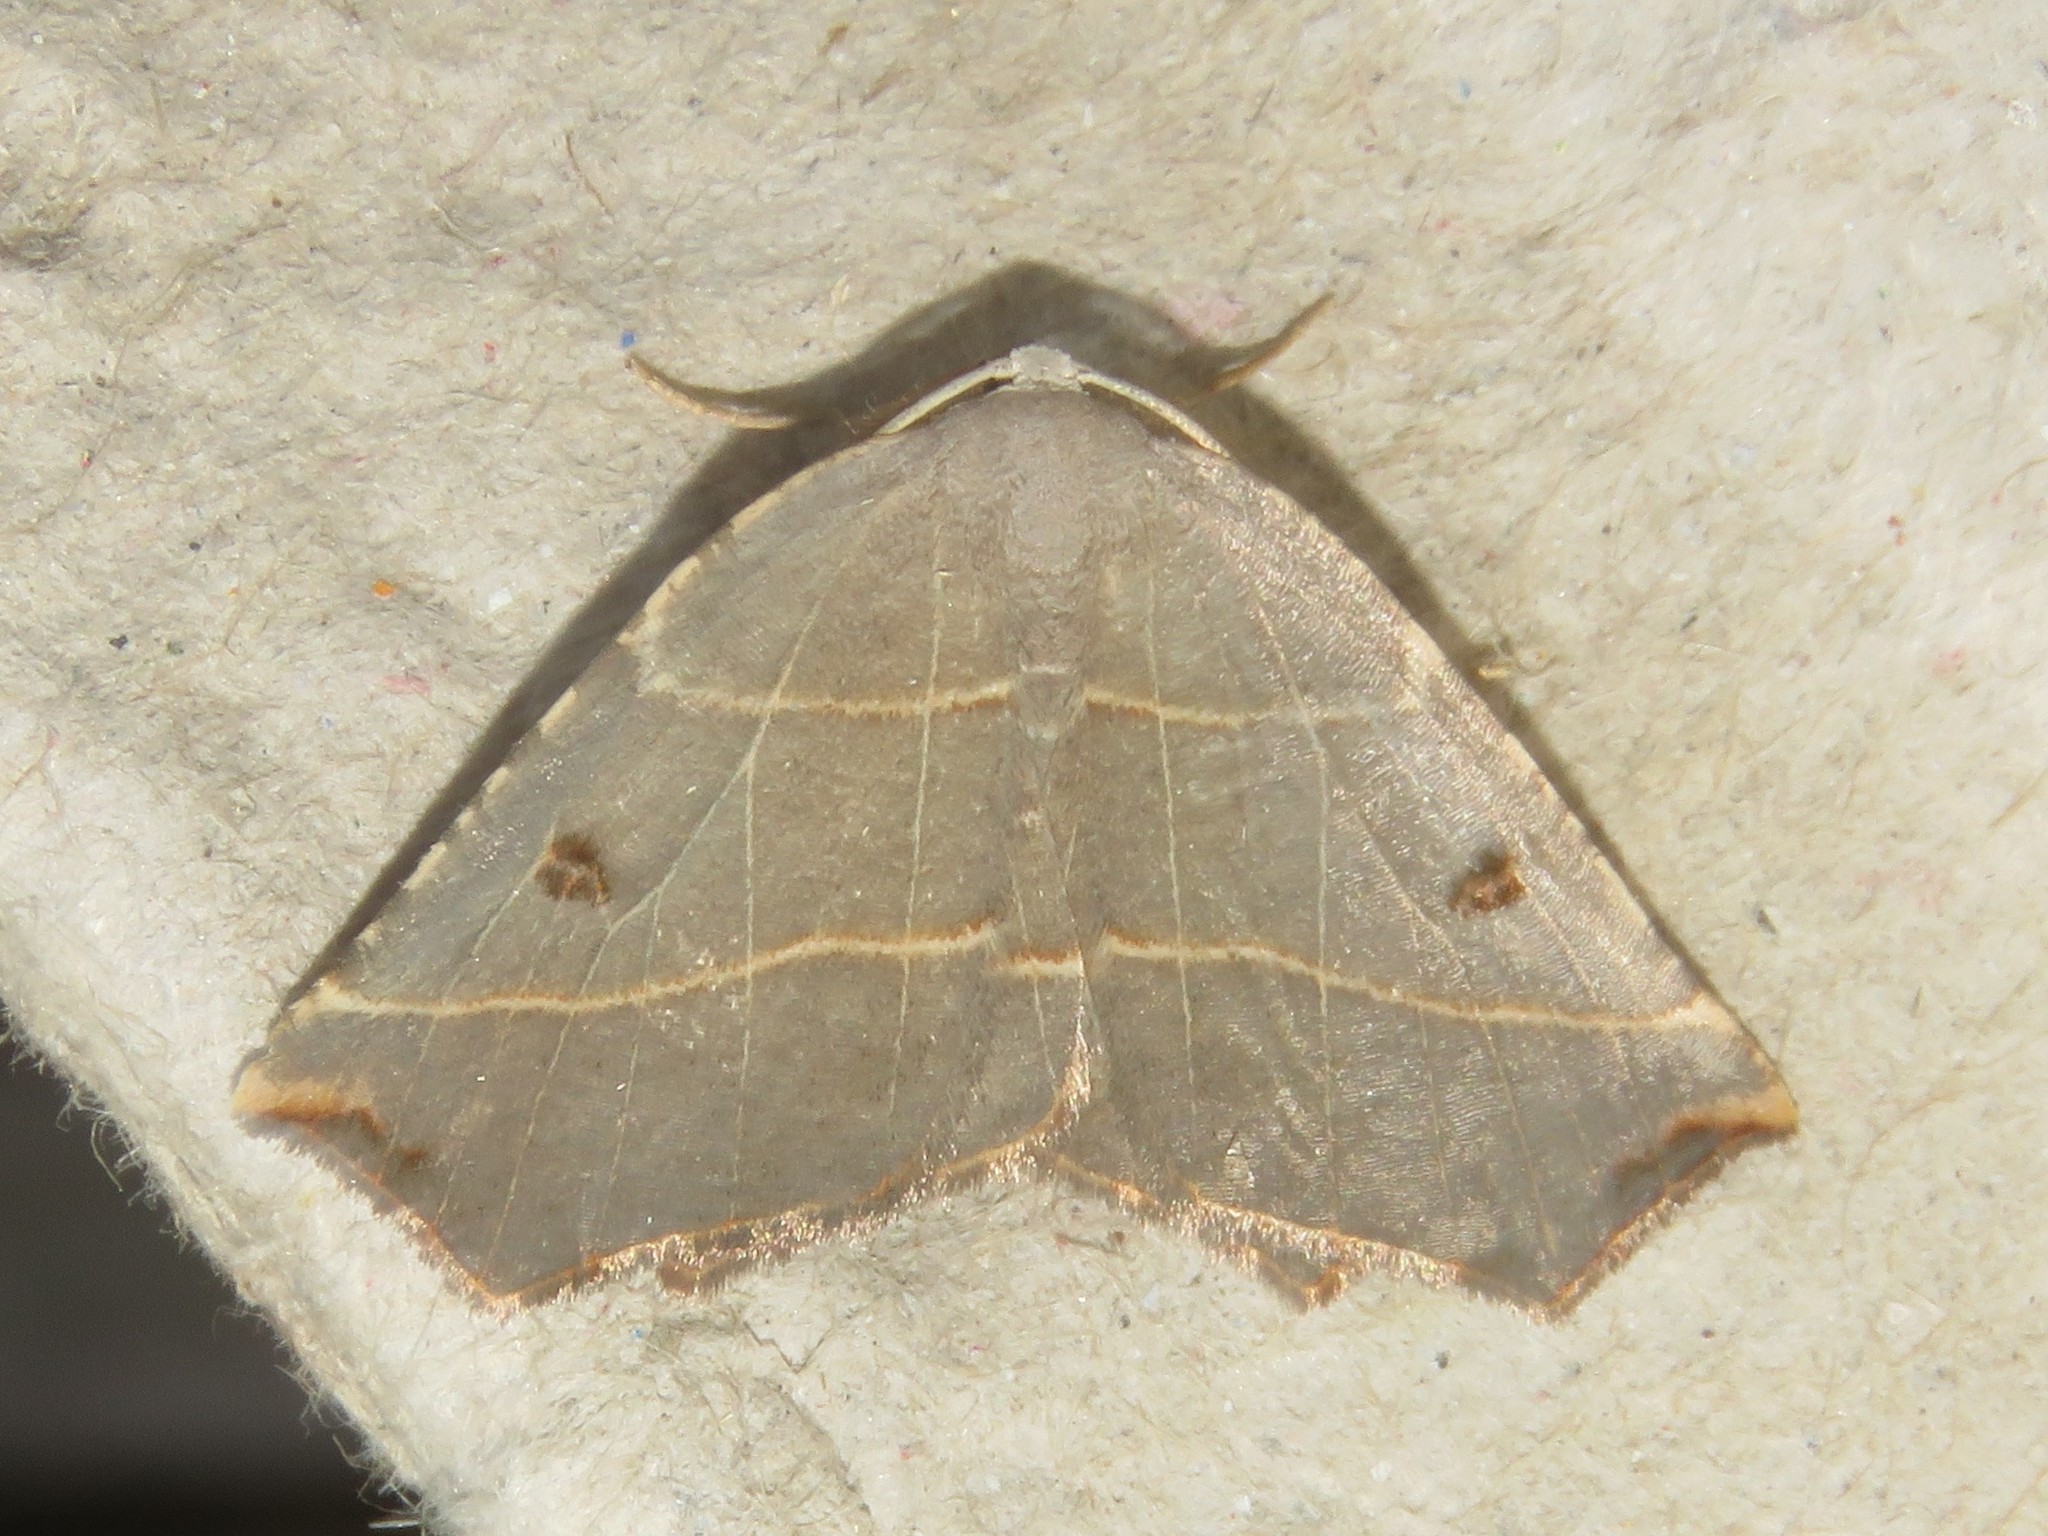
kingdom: Animalia
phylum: Arthropoda
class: Insecta
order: Lepidoptera
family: Geometridae
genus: Metanema
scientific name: Metanema inatomaria
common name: Pale metanema
